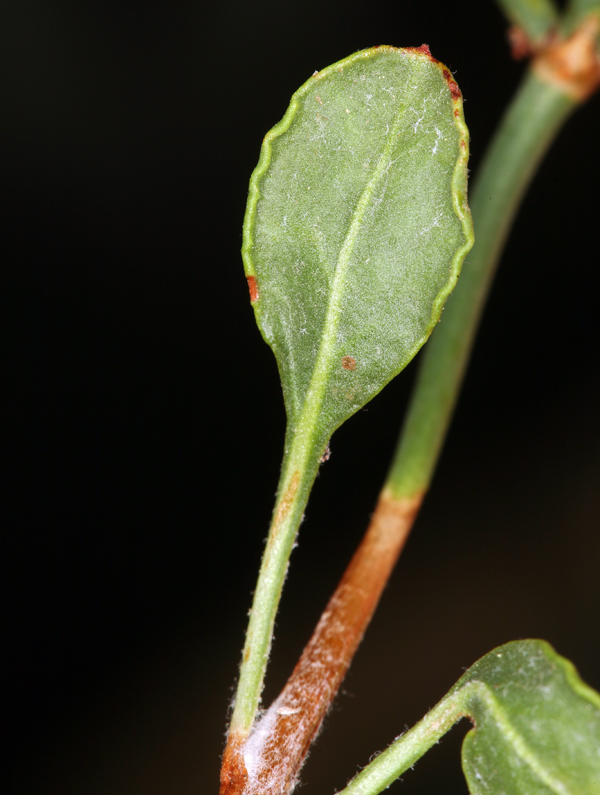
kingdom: Plantae
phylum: Tracheophyta
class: Magnoliopsida
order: Caryophyllales
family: Polygonaceae
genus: Eriogonum
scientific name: Eriogonum heermannii
